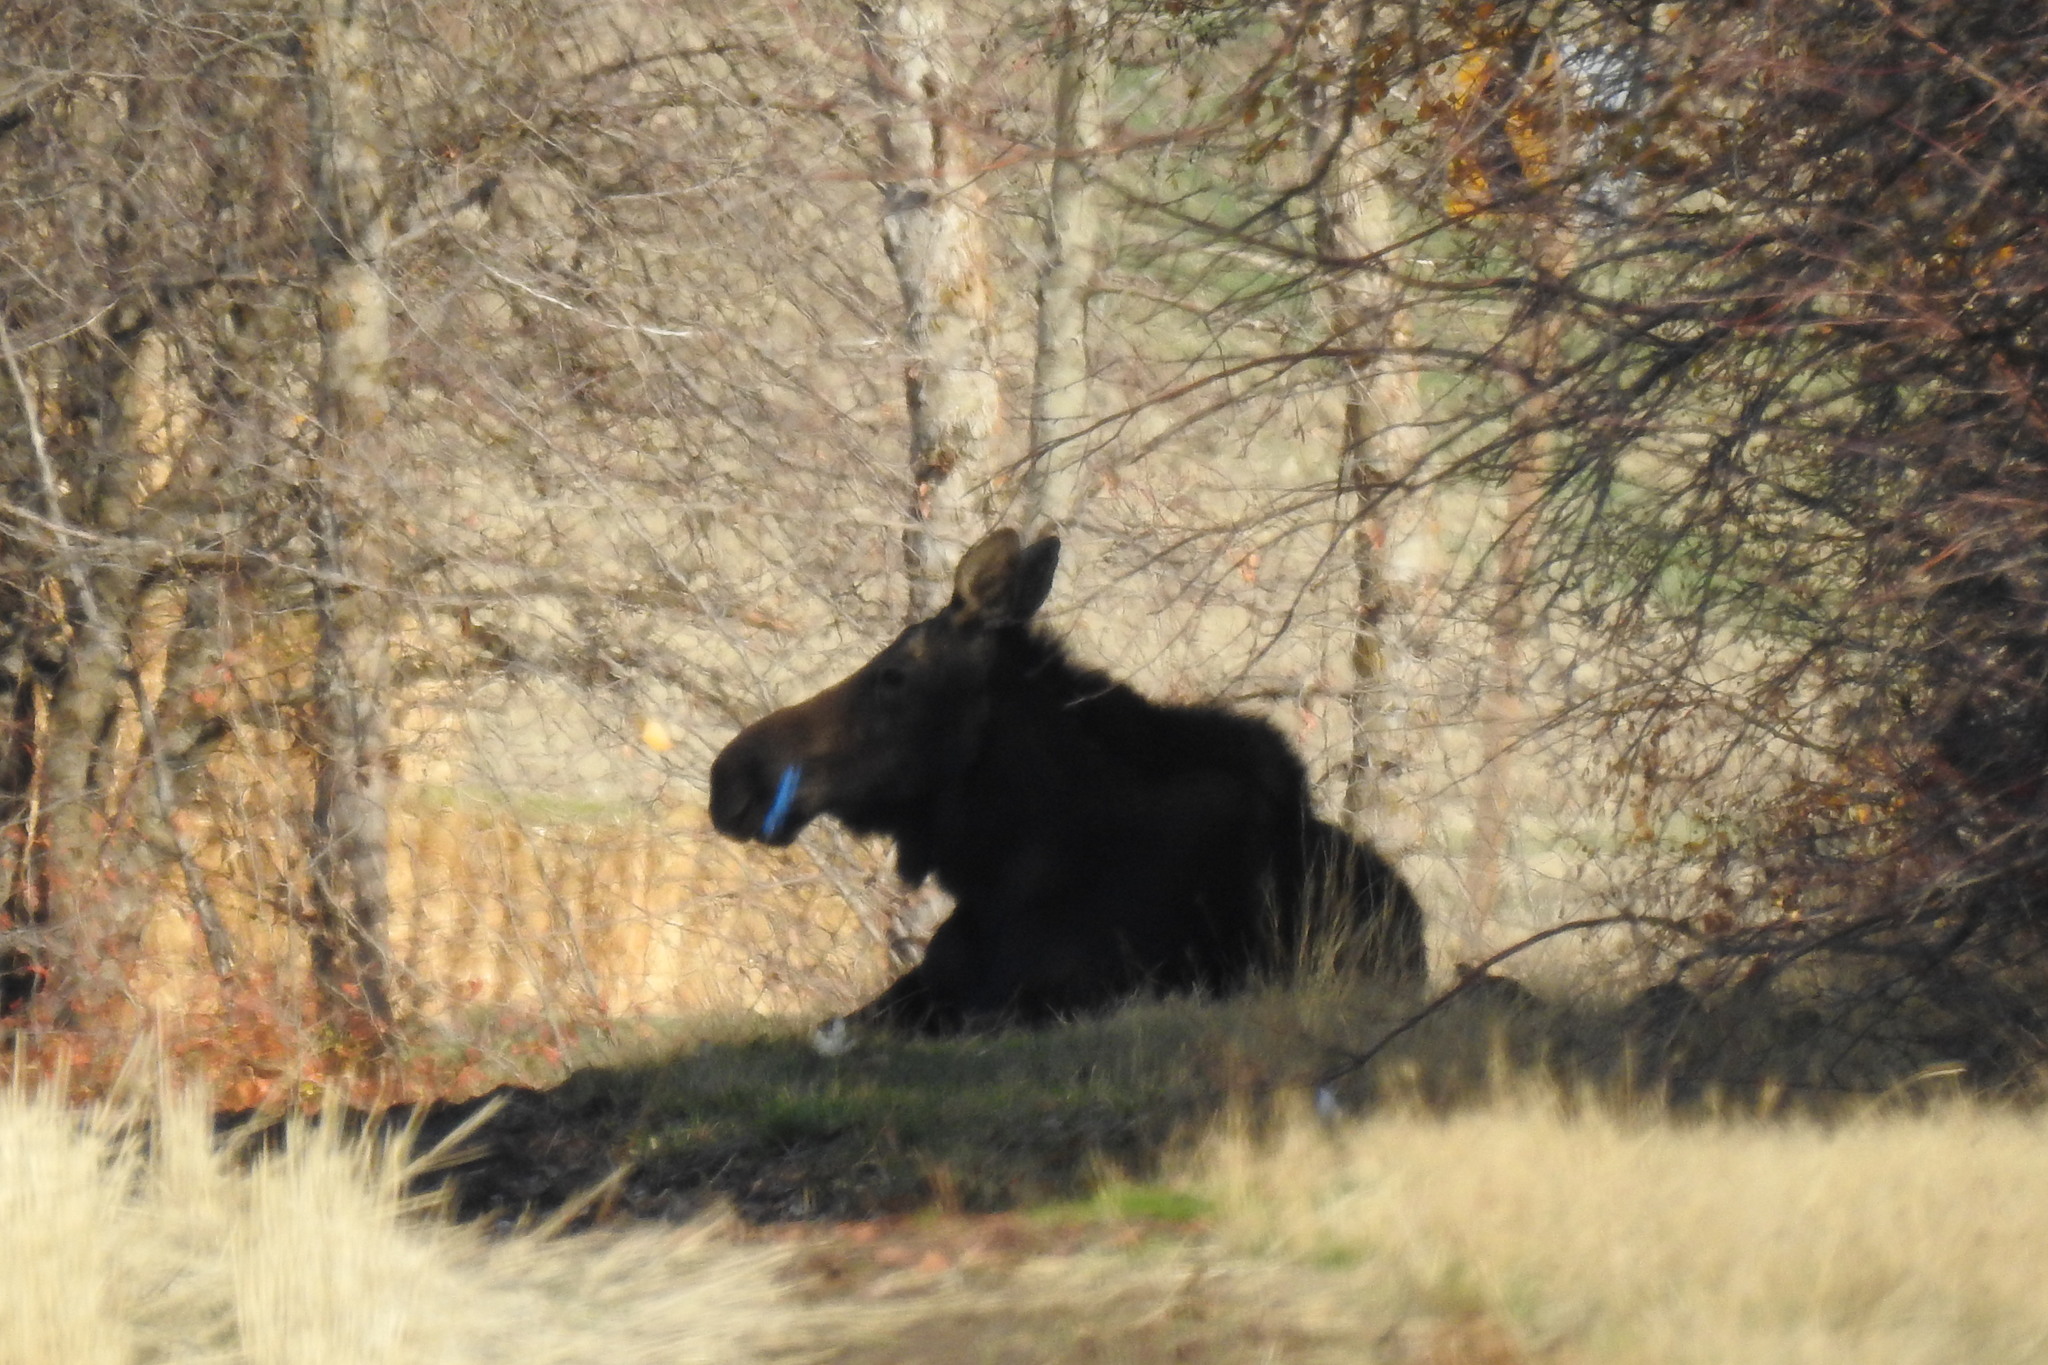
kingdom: Animalia
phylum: Chordata
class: Mammalia
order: Artiodactyla
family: Cervidae
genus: Alces
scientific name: Alces alces
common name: Moose
